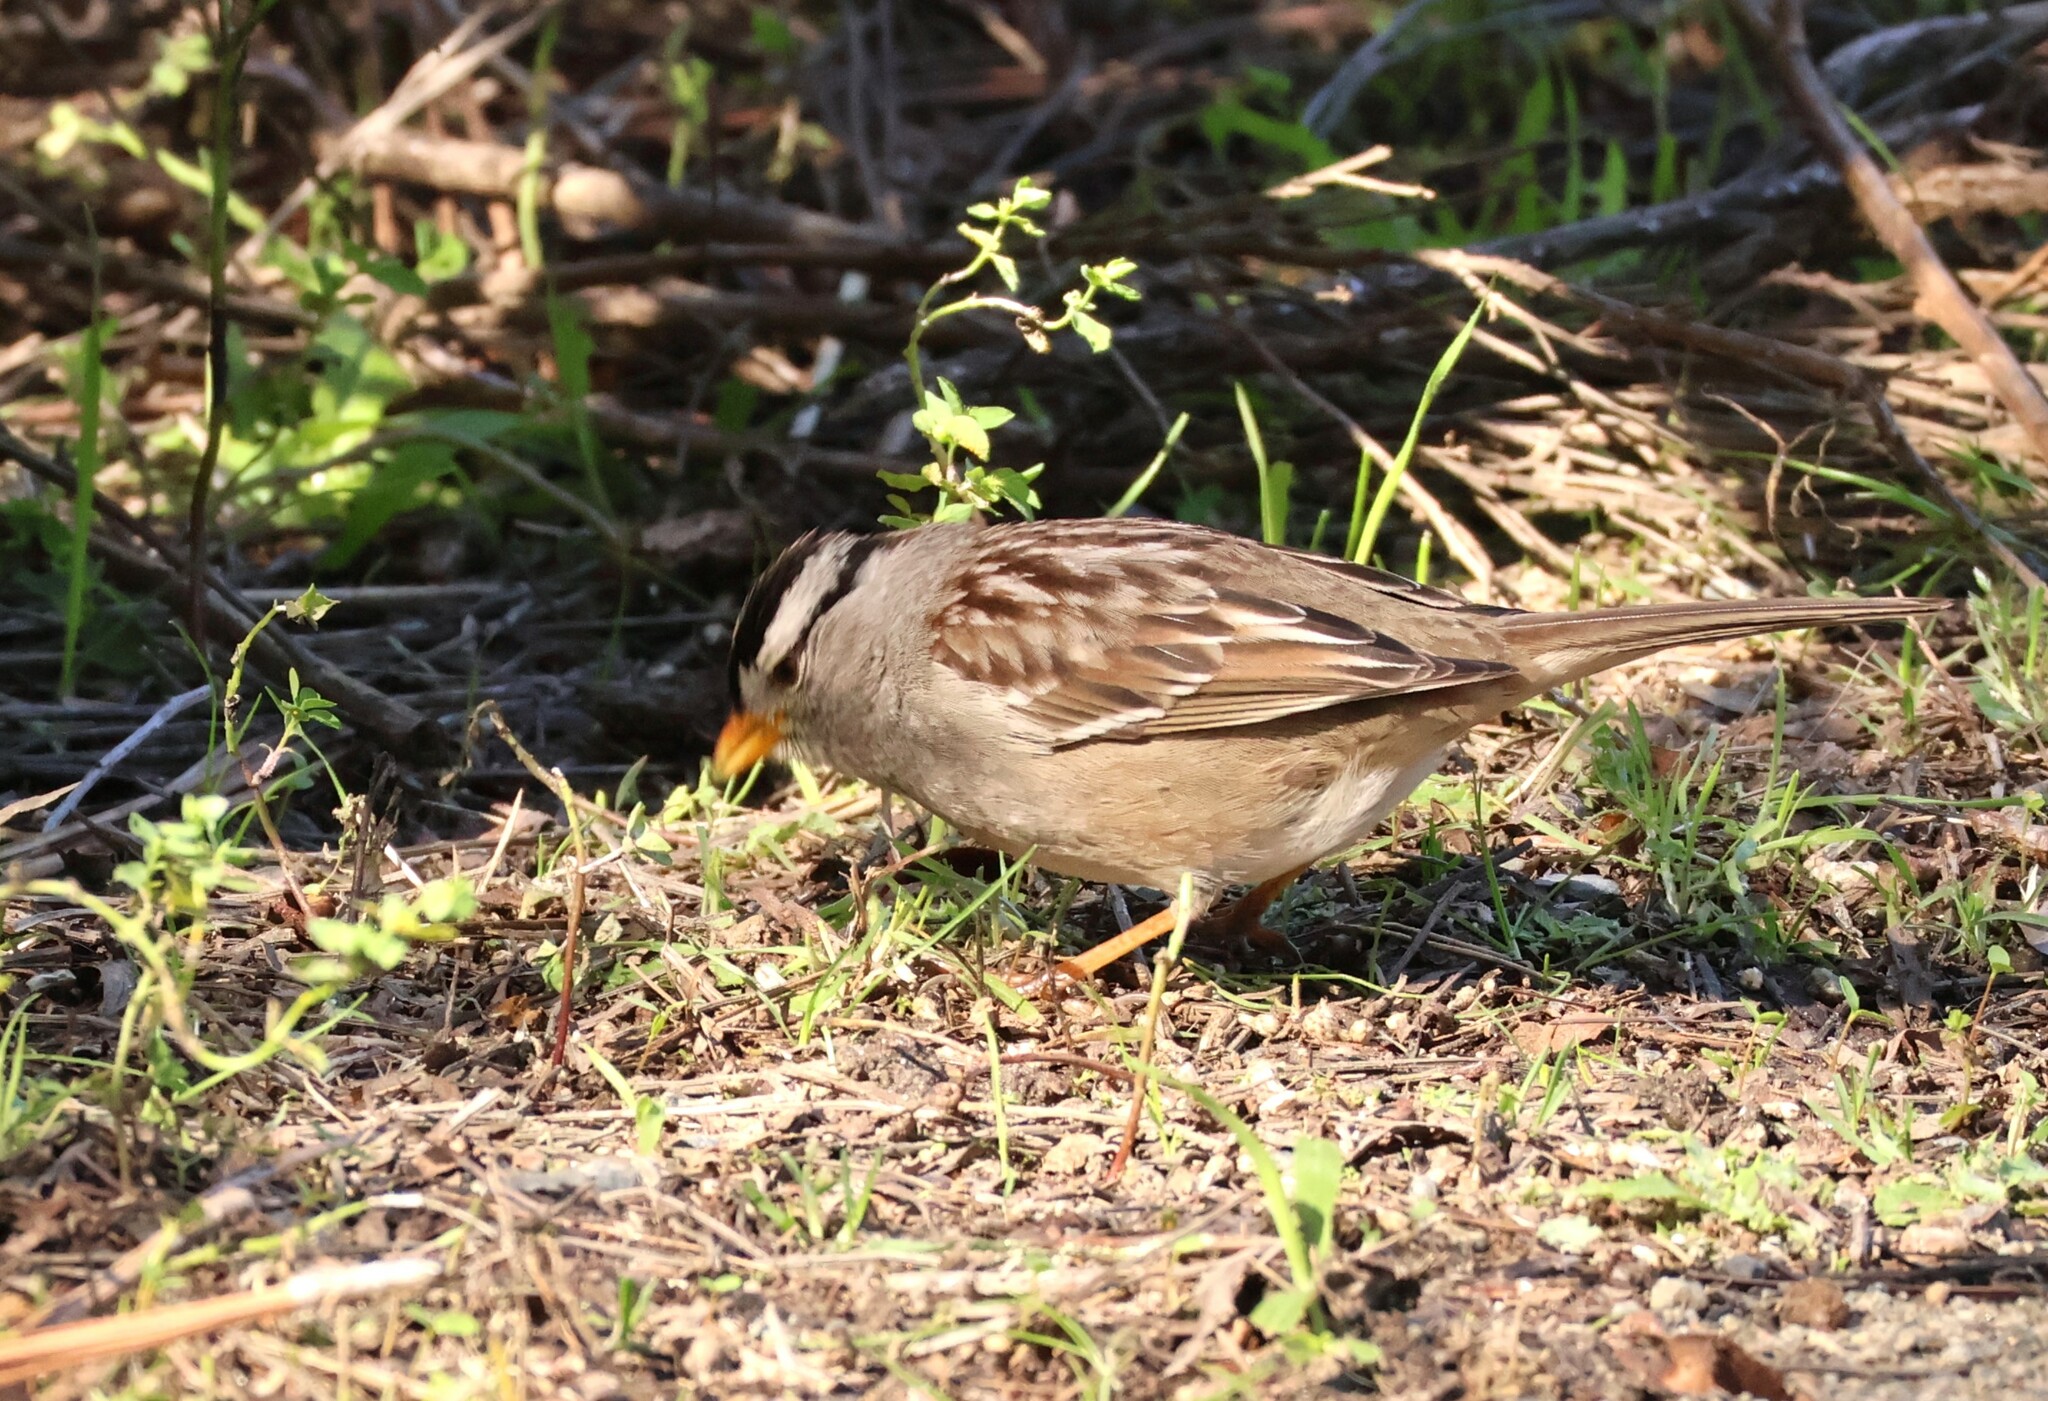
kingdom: Animalia
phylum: Chordata
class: Aves
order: Passeriformes
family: Passerellidae
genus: Zonotrichia
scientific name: Zonotrichia leucophrys
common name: White-crowned sparrow
